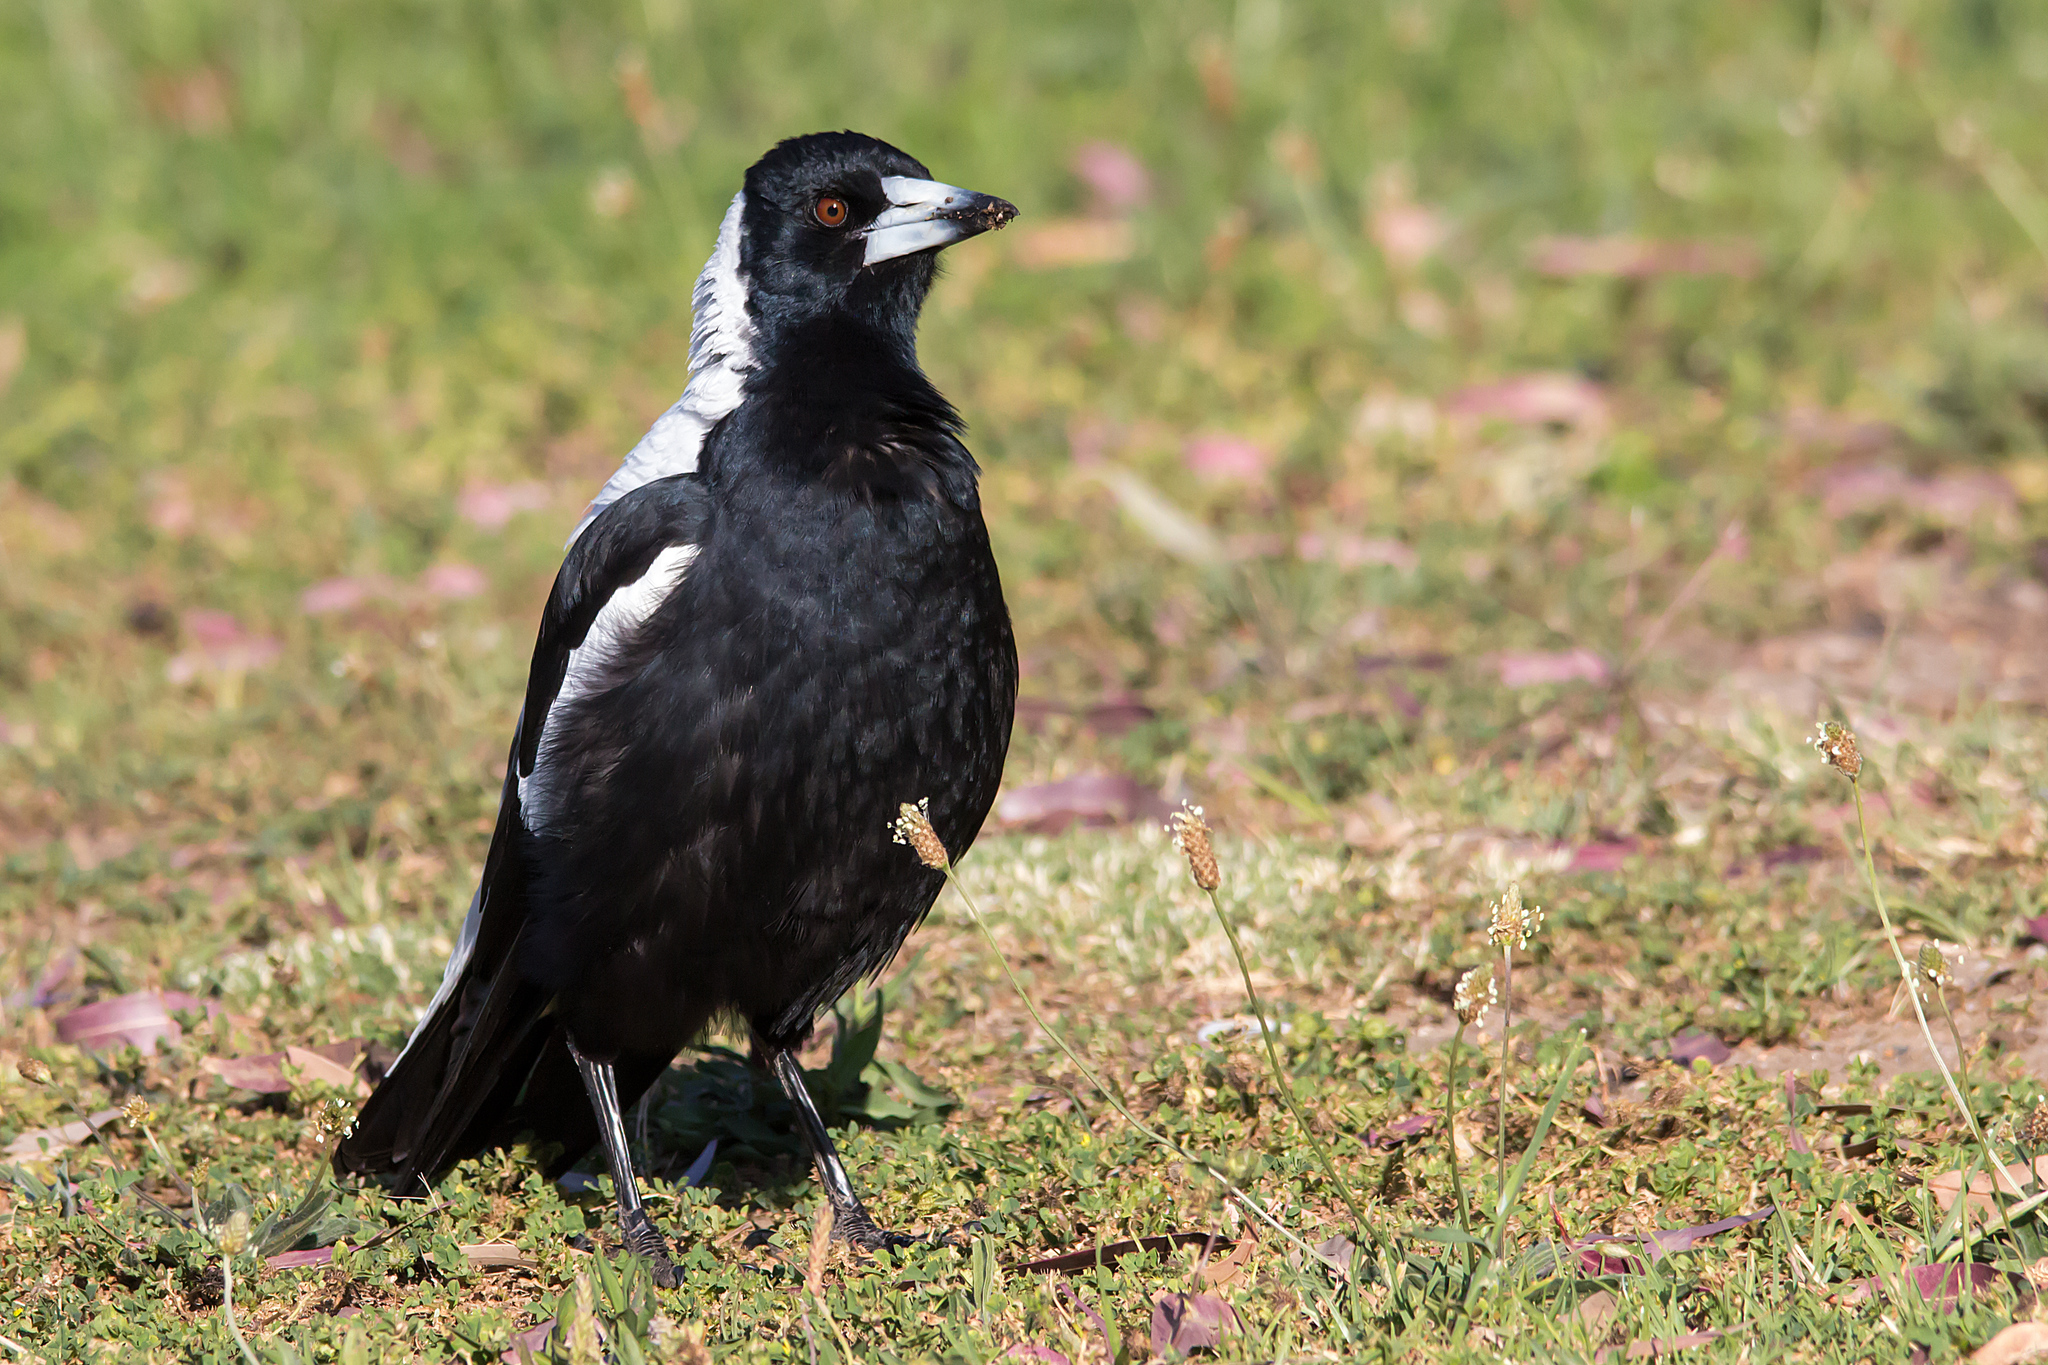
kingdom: Animalia
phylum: Chordata
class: Aves
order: Passeriformes
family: Cracticidae
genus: Gymnorhina
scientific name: Gymnorhina tibicen
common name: Australian magpie
